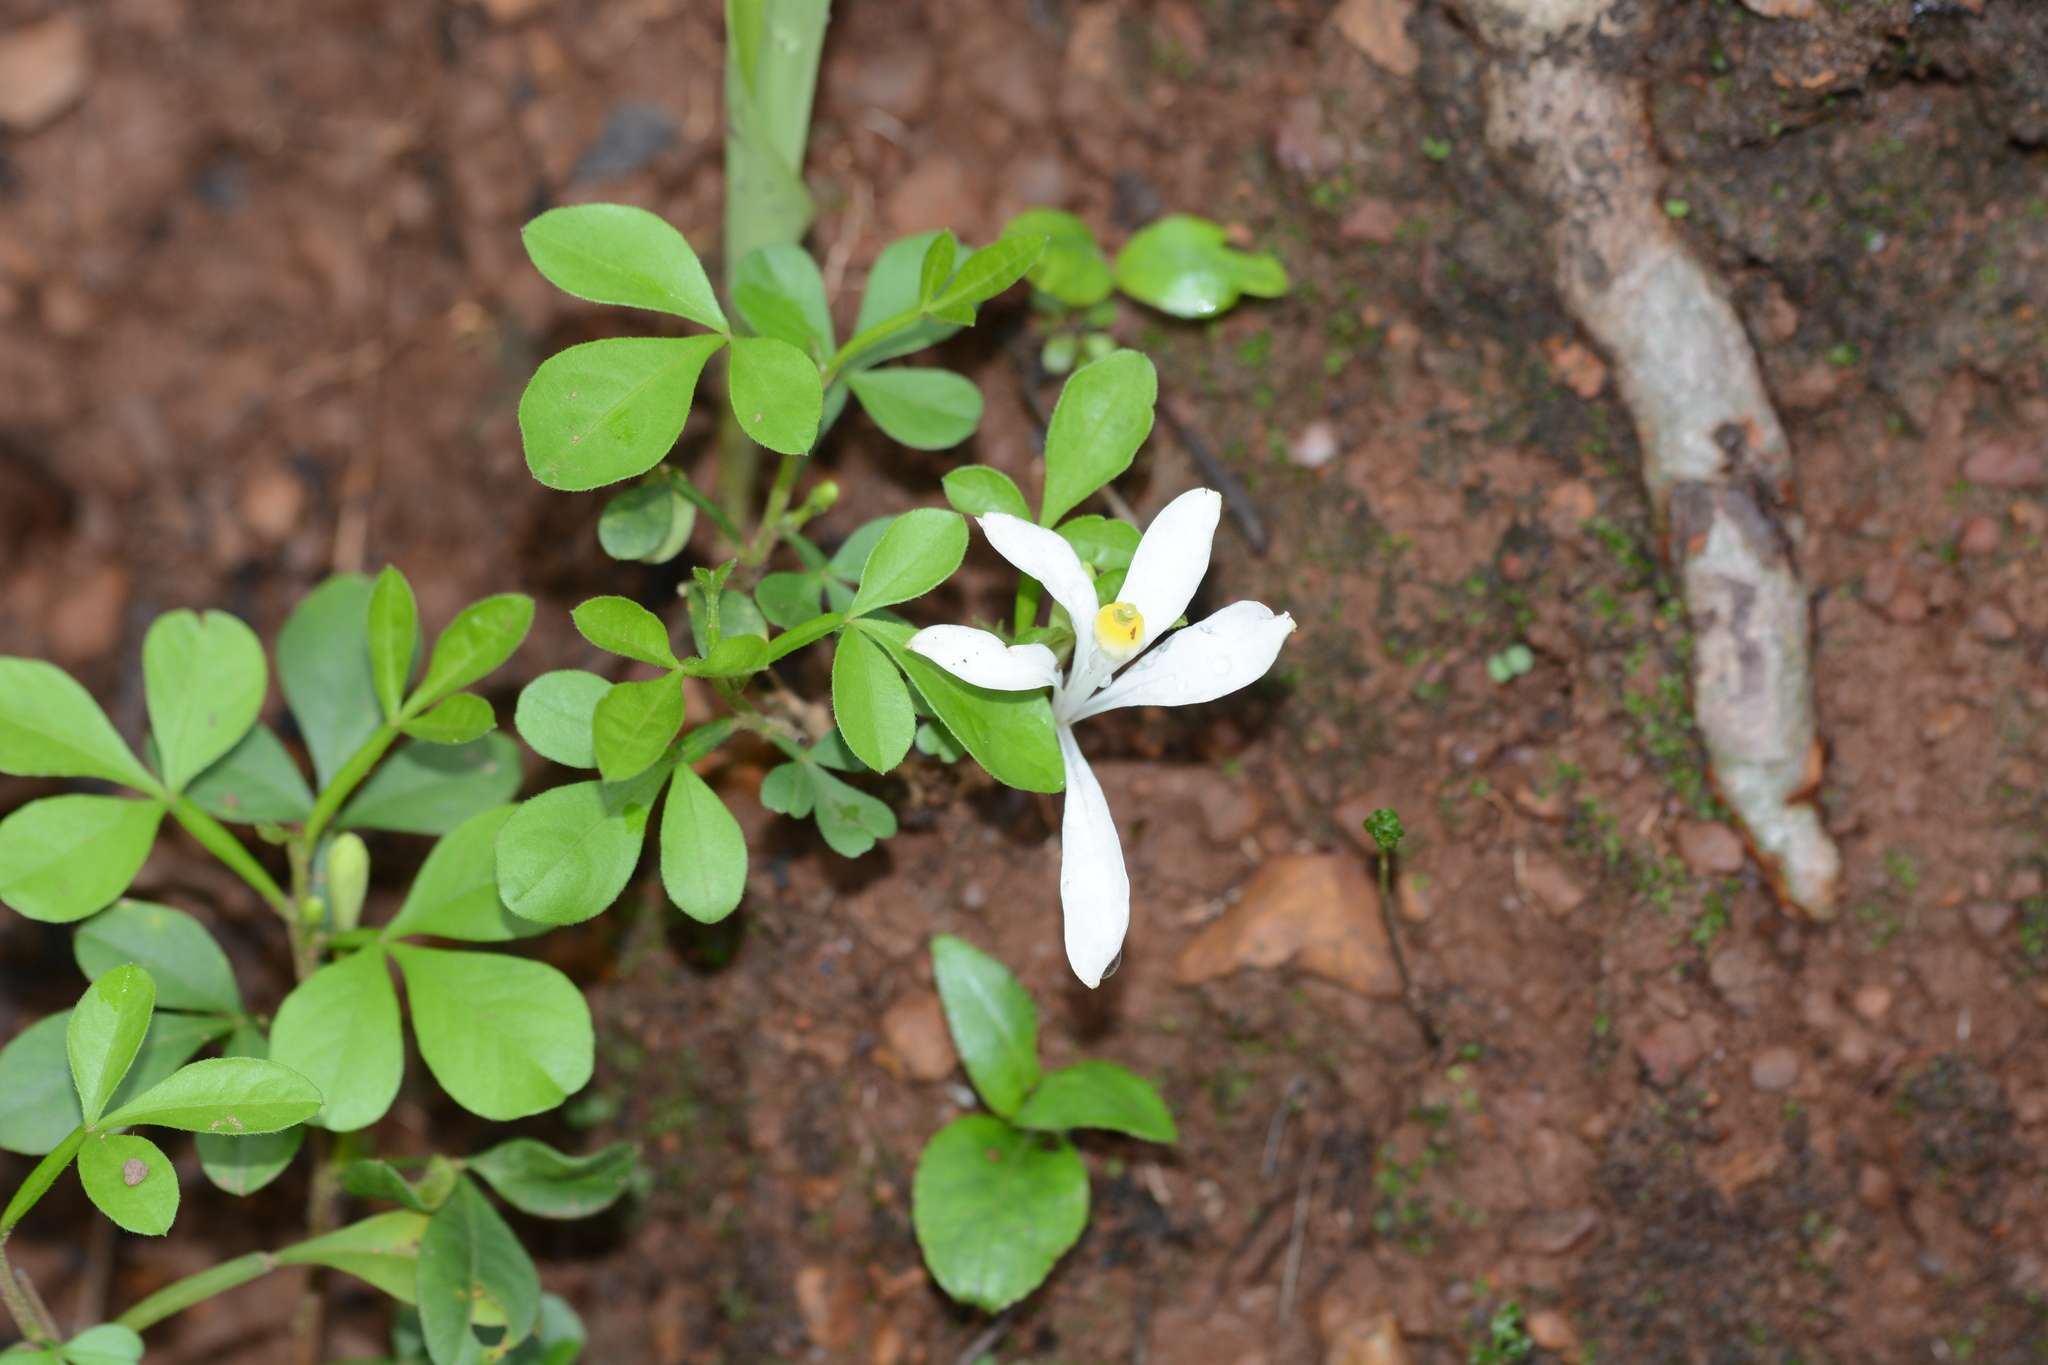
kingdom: Plantae
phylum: Tracheophyta
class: Magnoliopsida
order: Sapindales
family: Meliaceae
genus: Naregamia
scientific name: Naregamia alata
